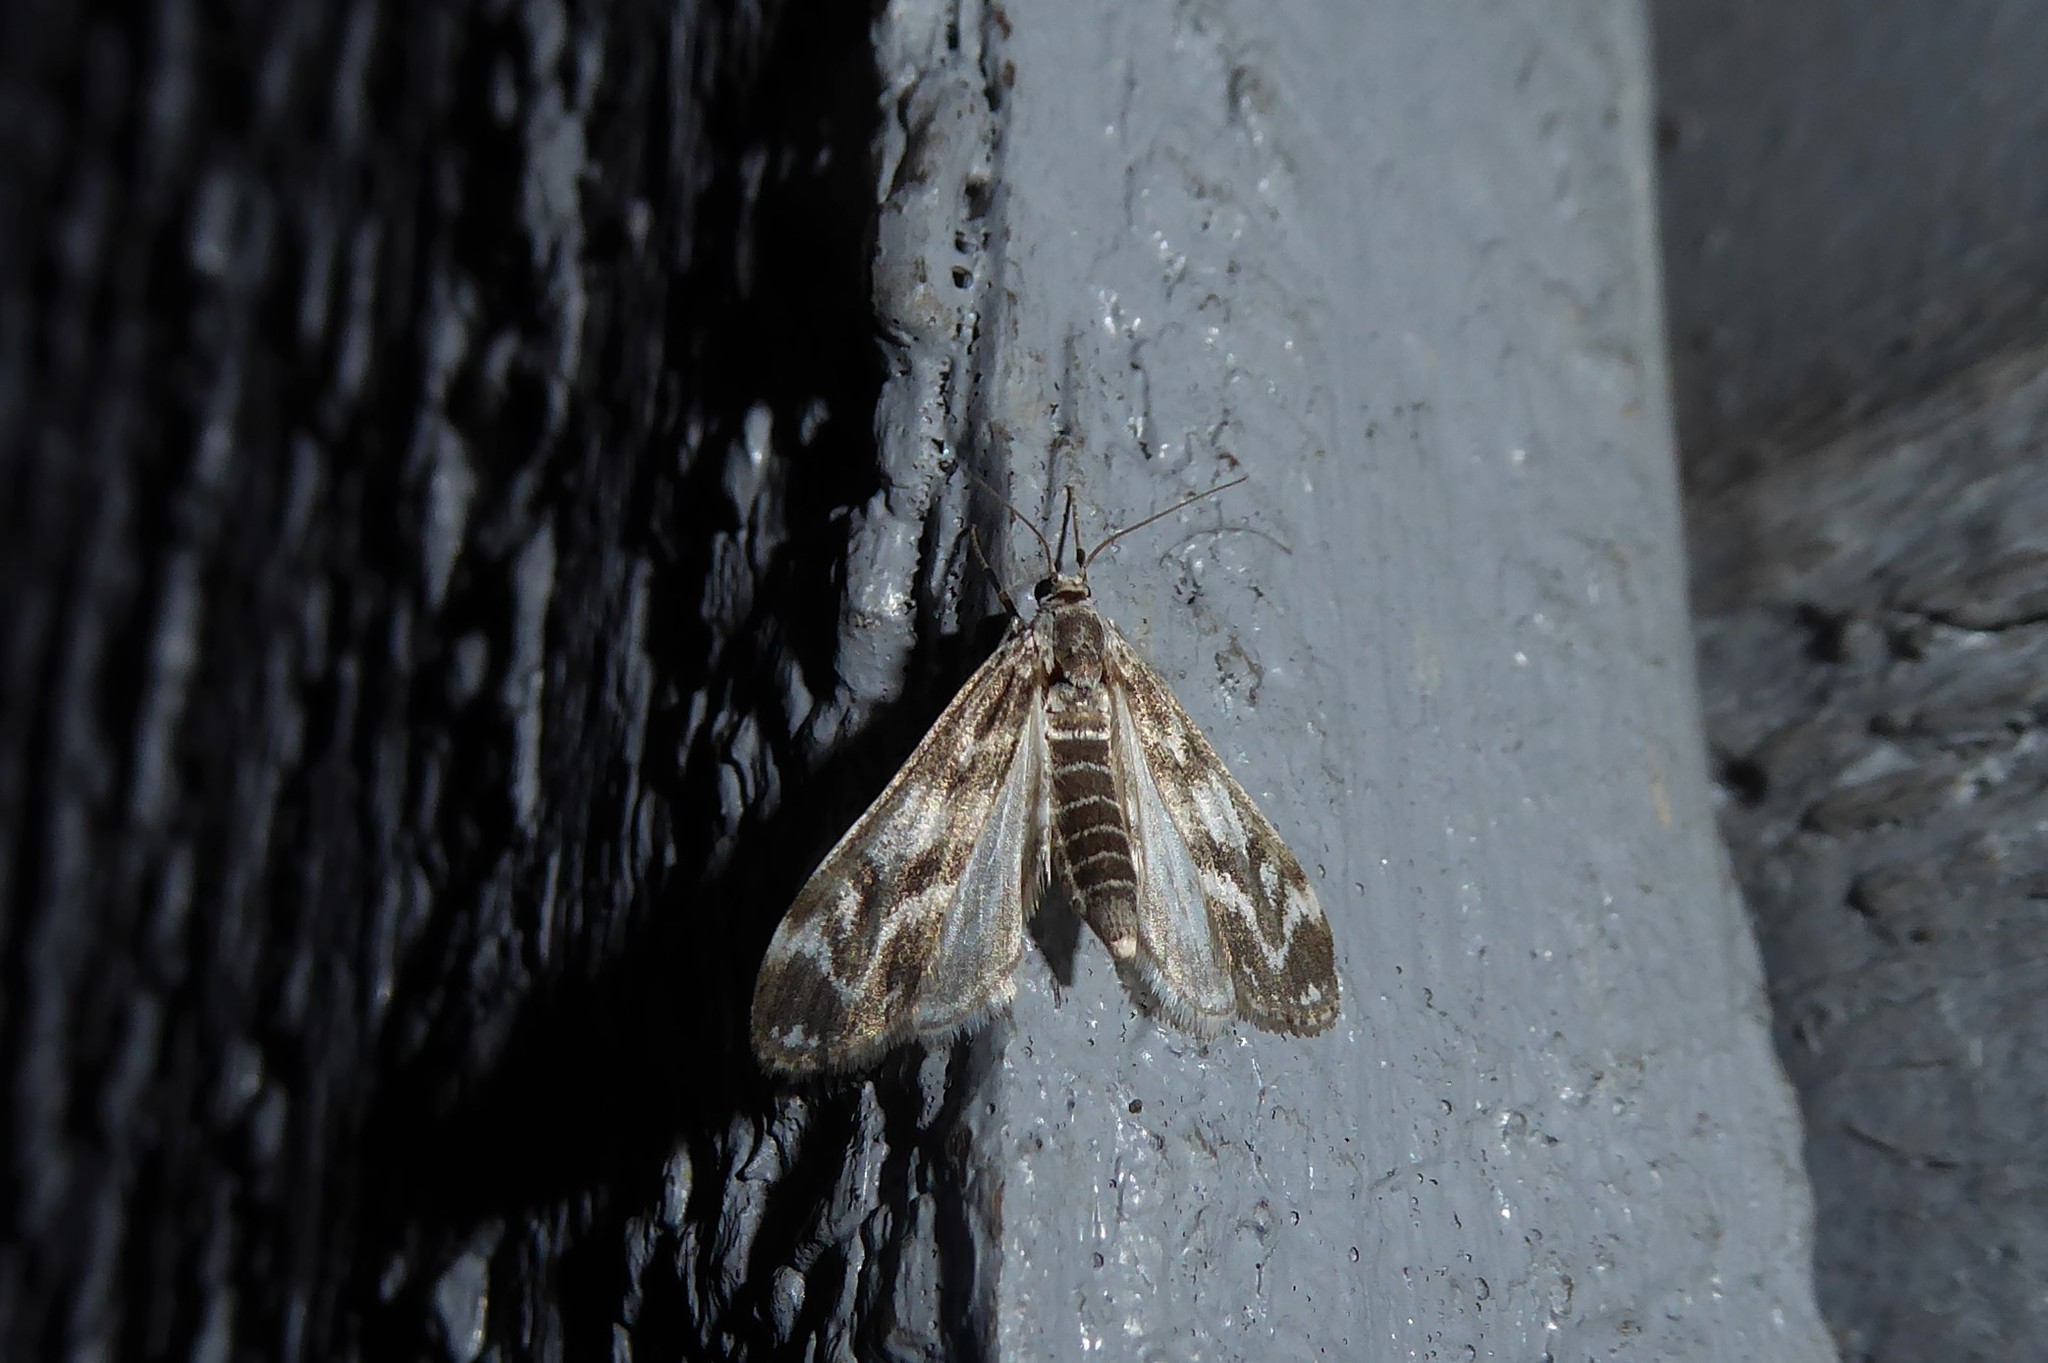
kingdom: Animalia
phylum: Arthropoda
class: Insecta
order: Lepidoptera
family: Crambidae
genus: Hygraula
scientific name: Hygraula nitens
